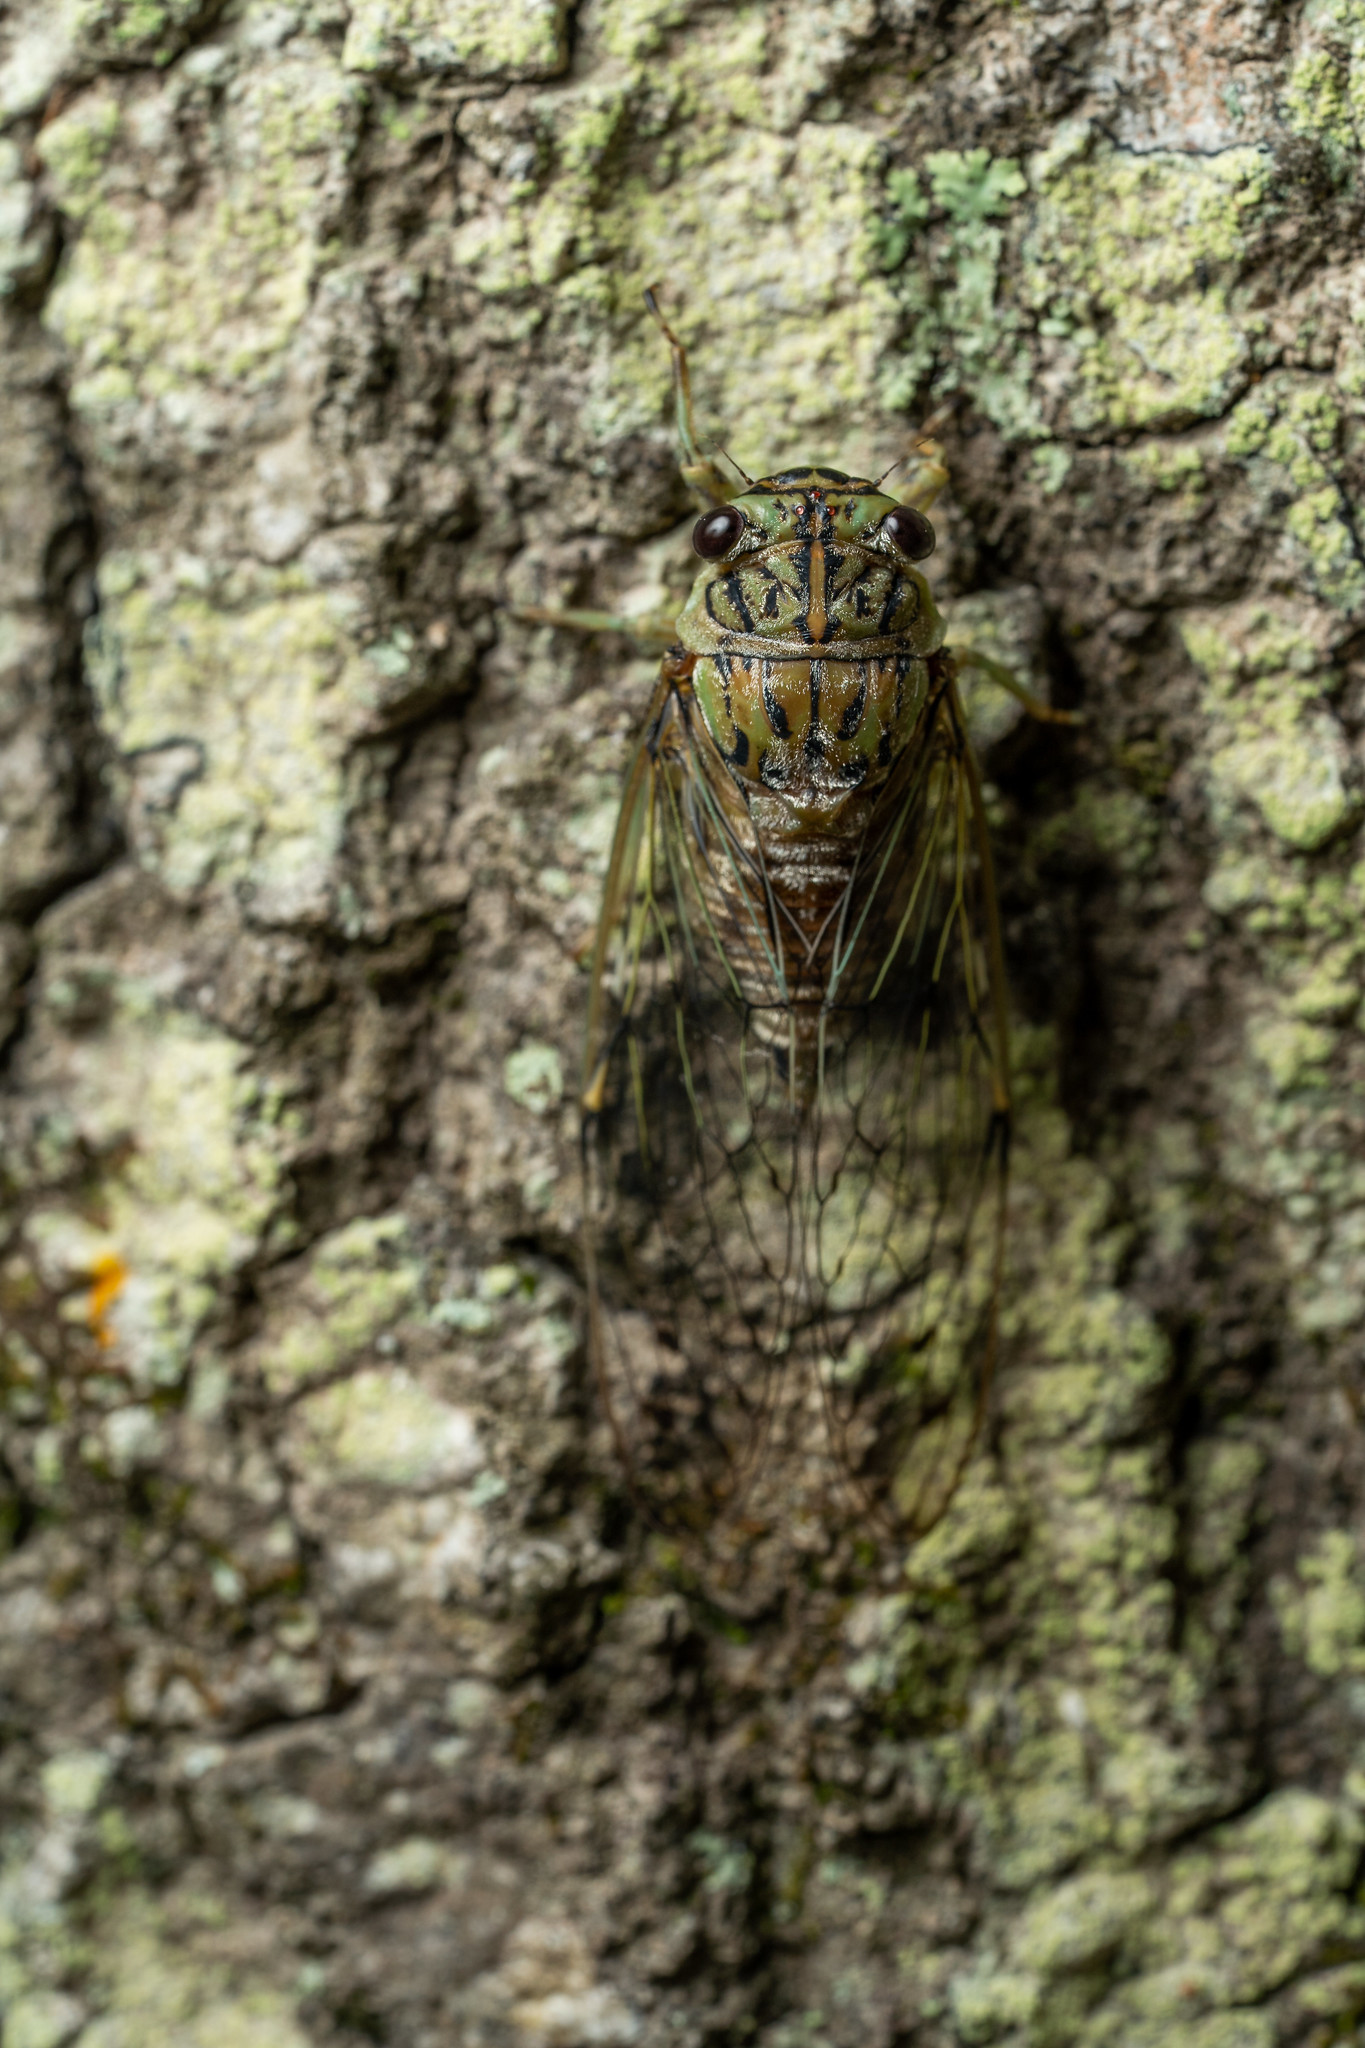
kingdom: Animalia
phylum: Arthropoda
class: Insecta
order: Hemiptera
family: Cicadidae
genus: Neocicada
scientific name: Neocicada hieroglyphica
